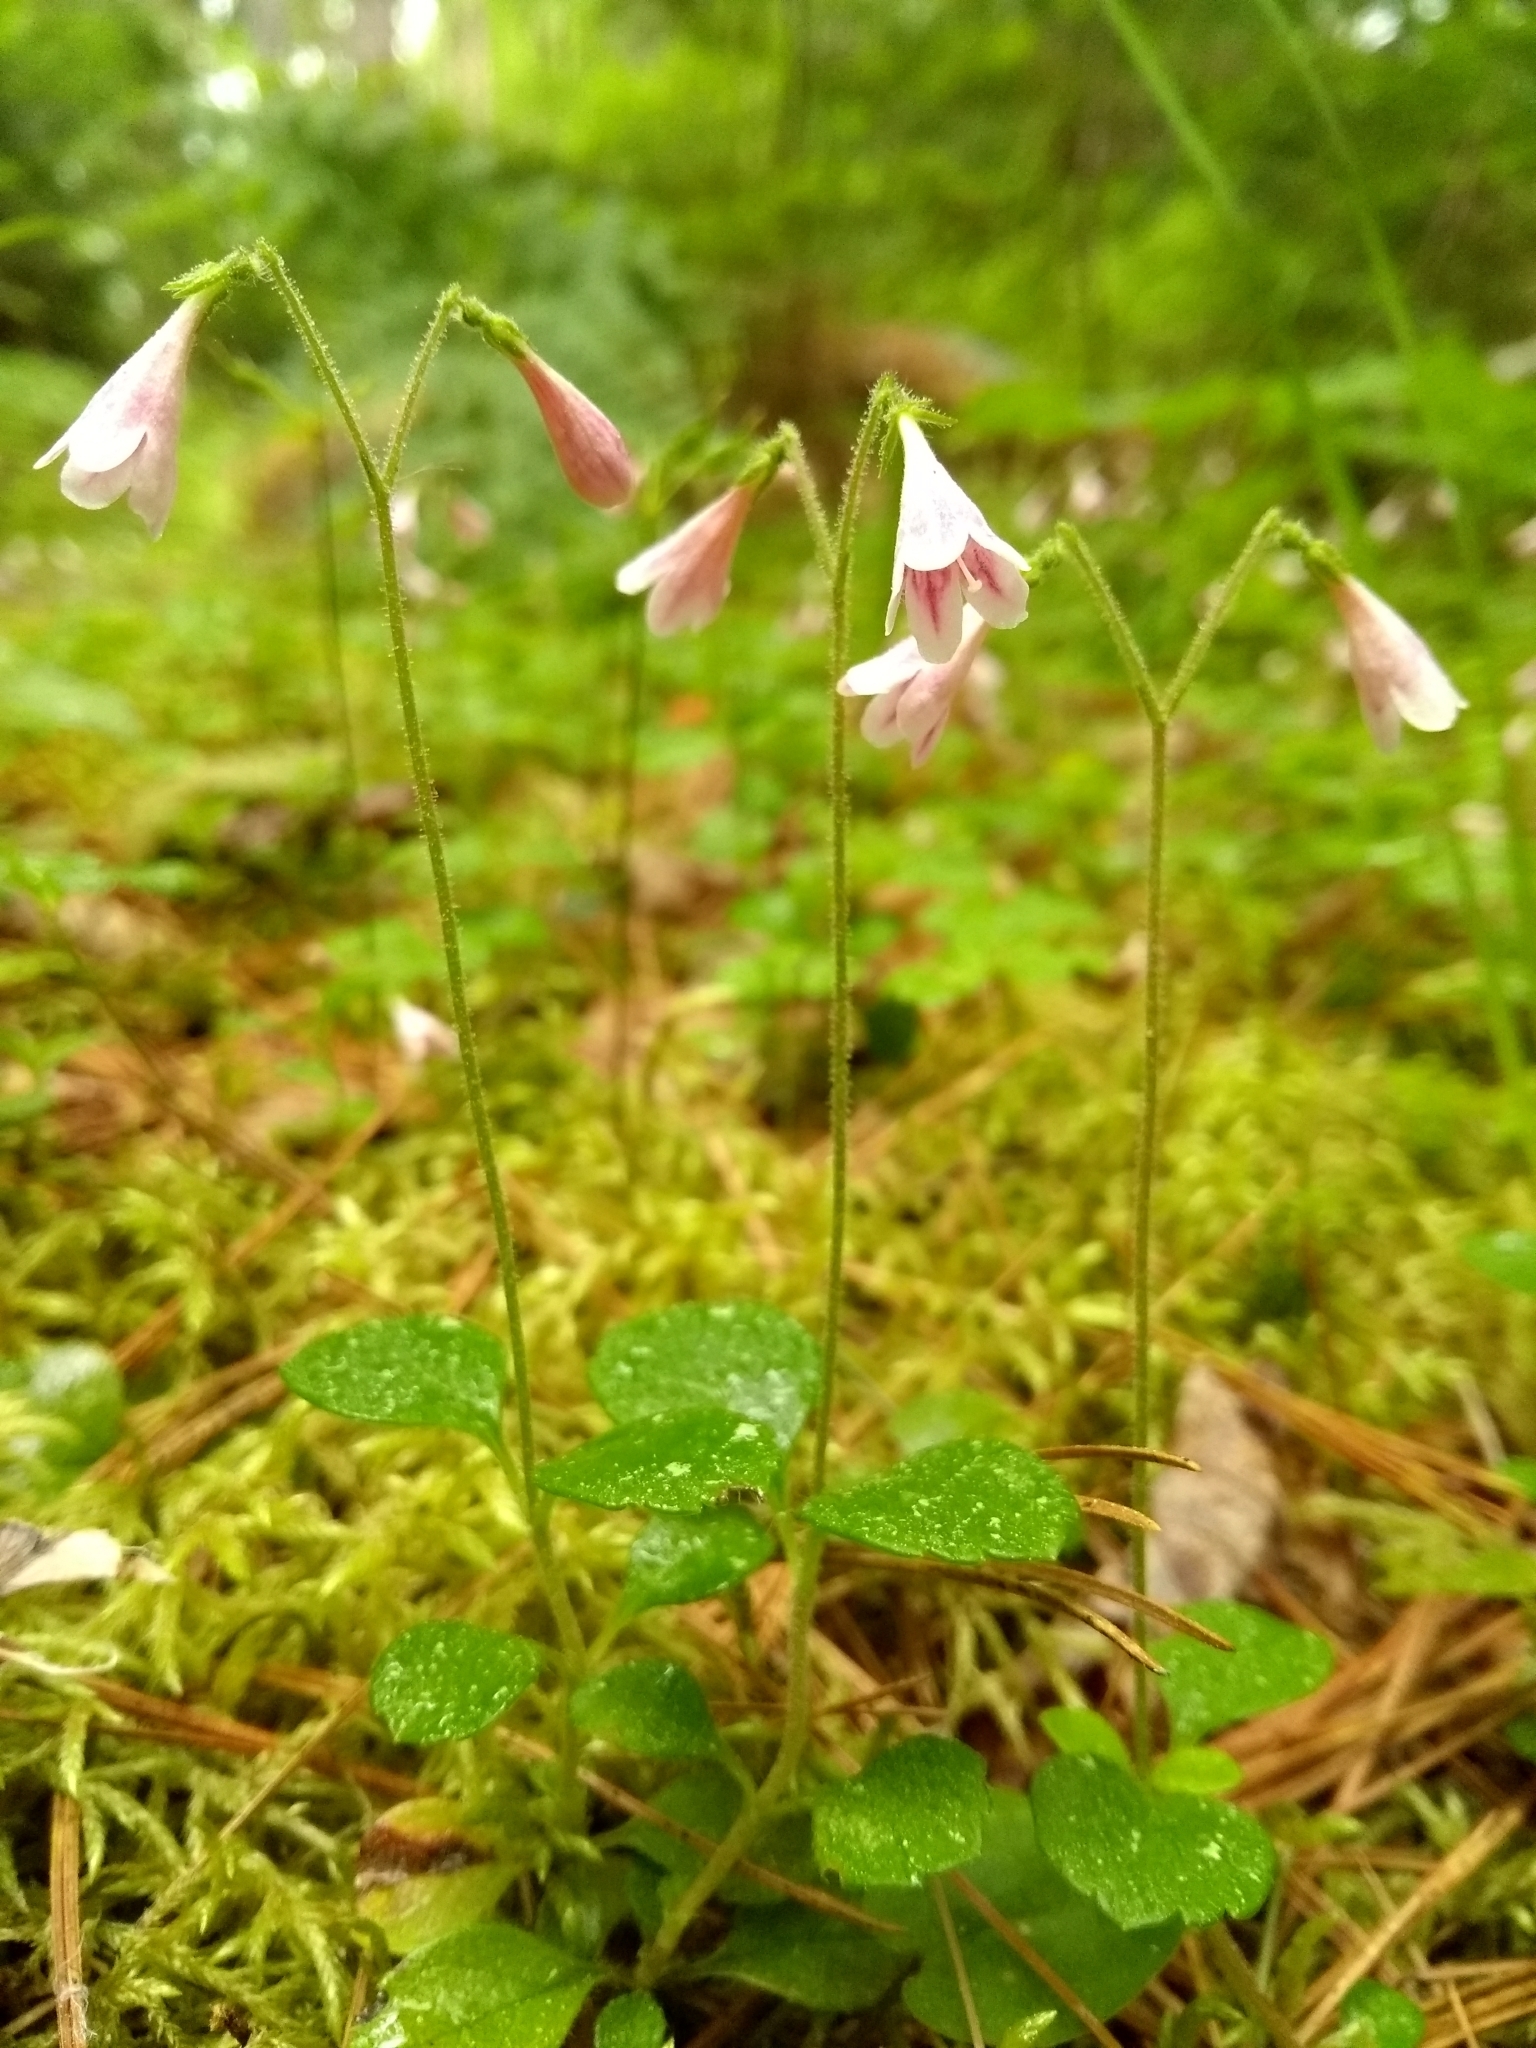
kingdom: Plantae
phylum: Tracheophyta
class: Magnoliopsida
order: Dipsacales
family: Caprifoliaceae
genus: Linnaea
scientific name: Linnaea borealis
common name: Twinflower
